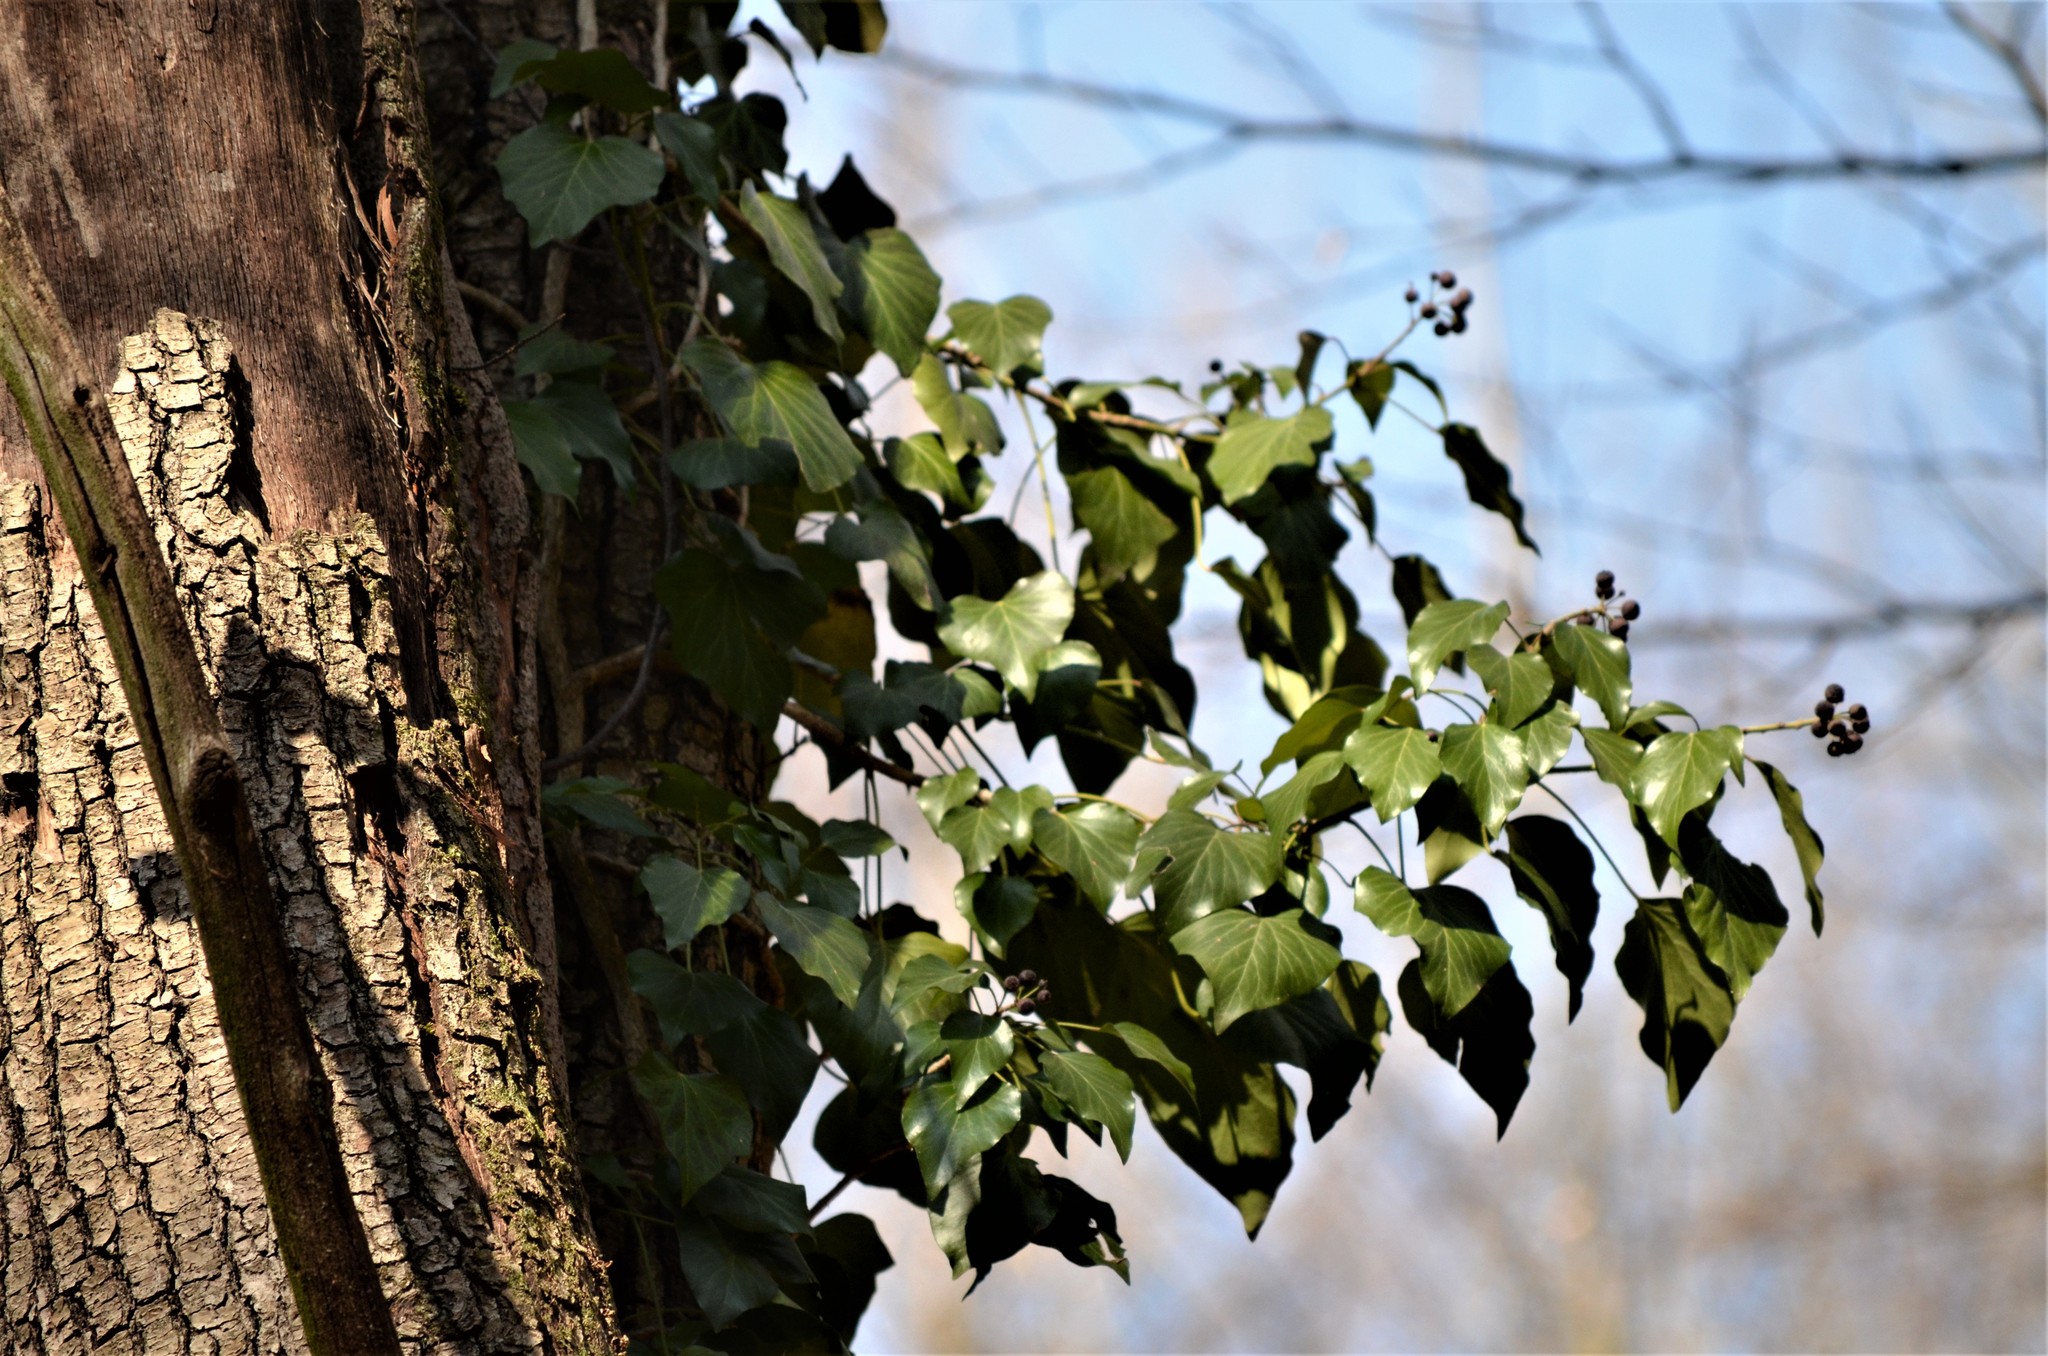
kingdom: Plantae
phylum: Tracheophyta
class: Magnoliopsida
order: Apiales
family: Araliaceae
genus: Hedera
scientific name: Hedera helix
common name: Ivy
